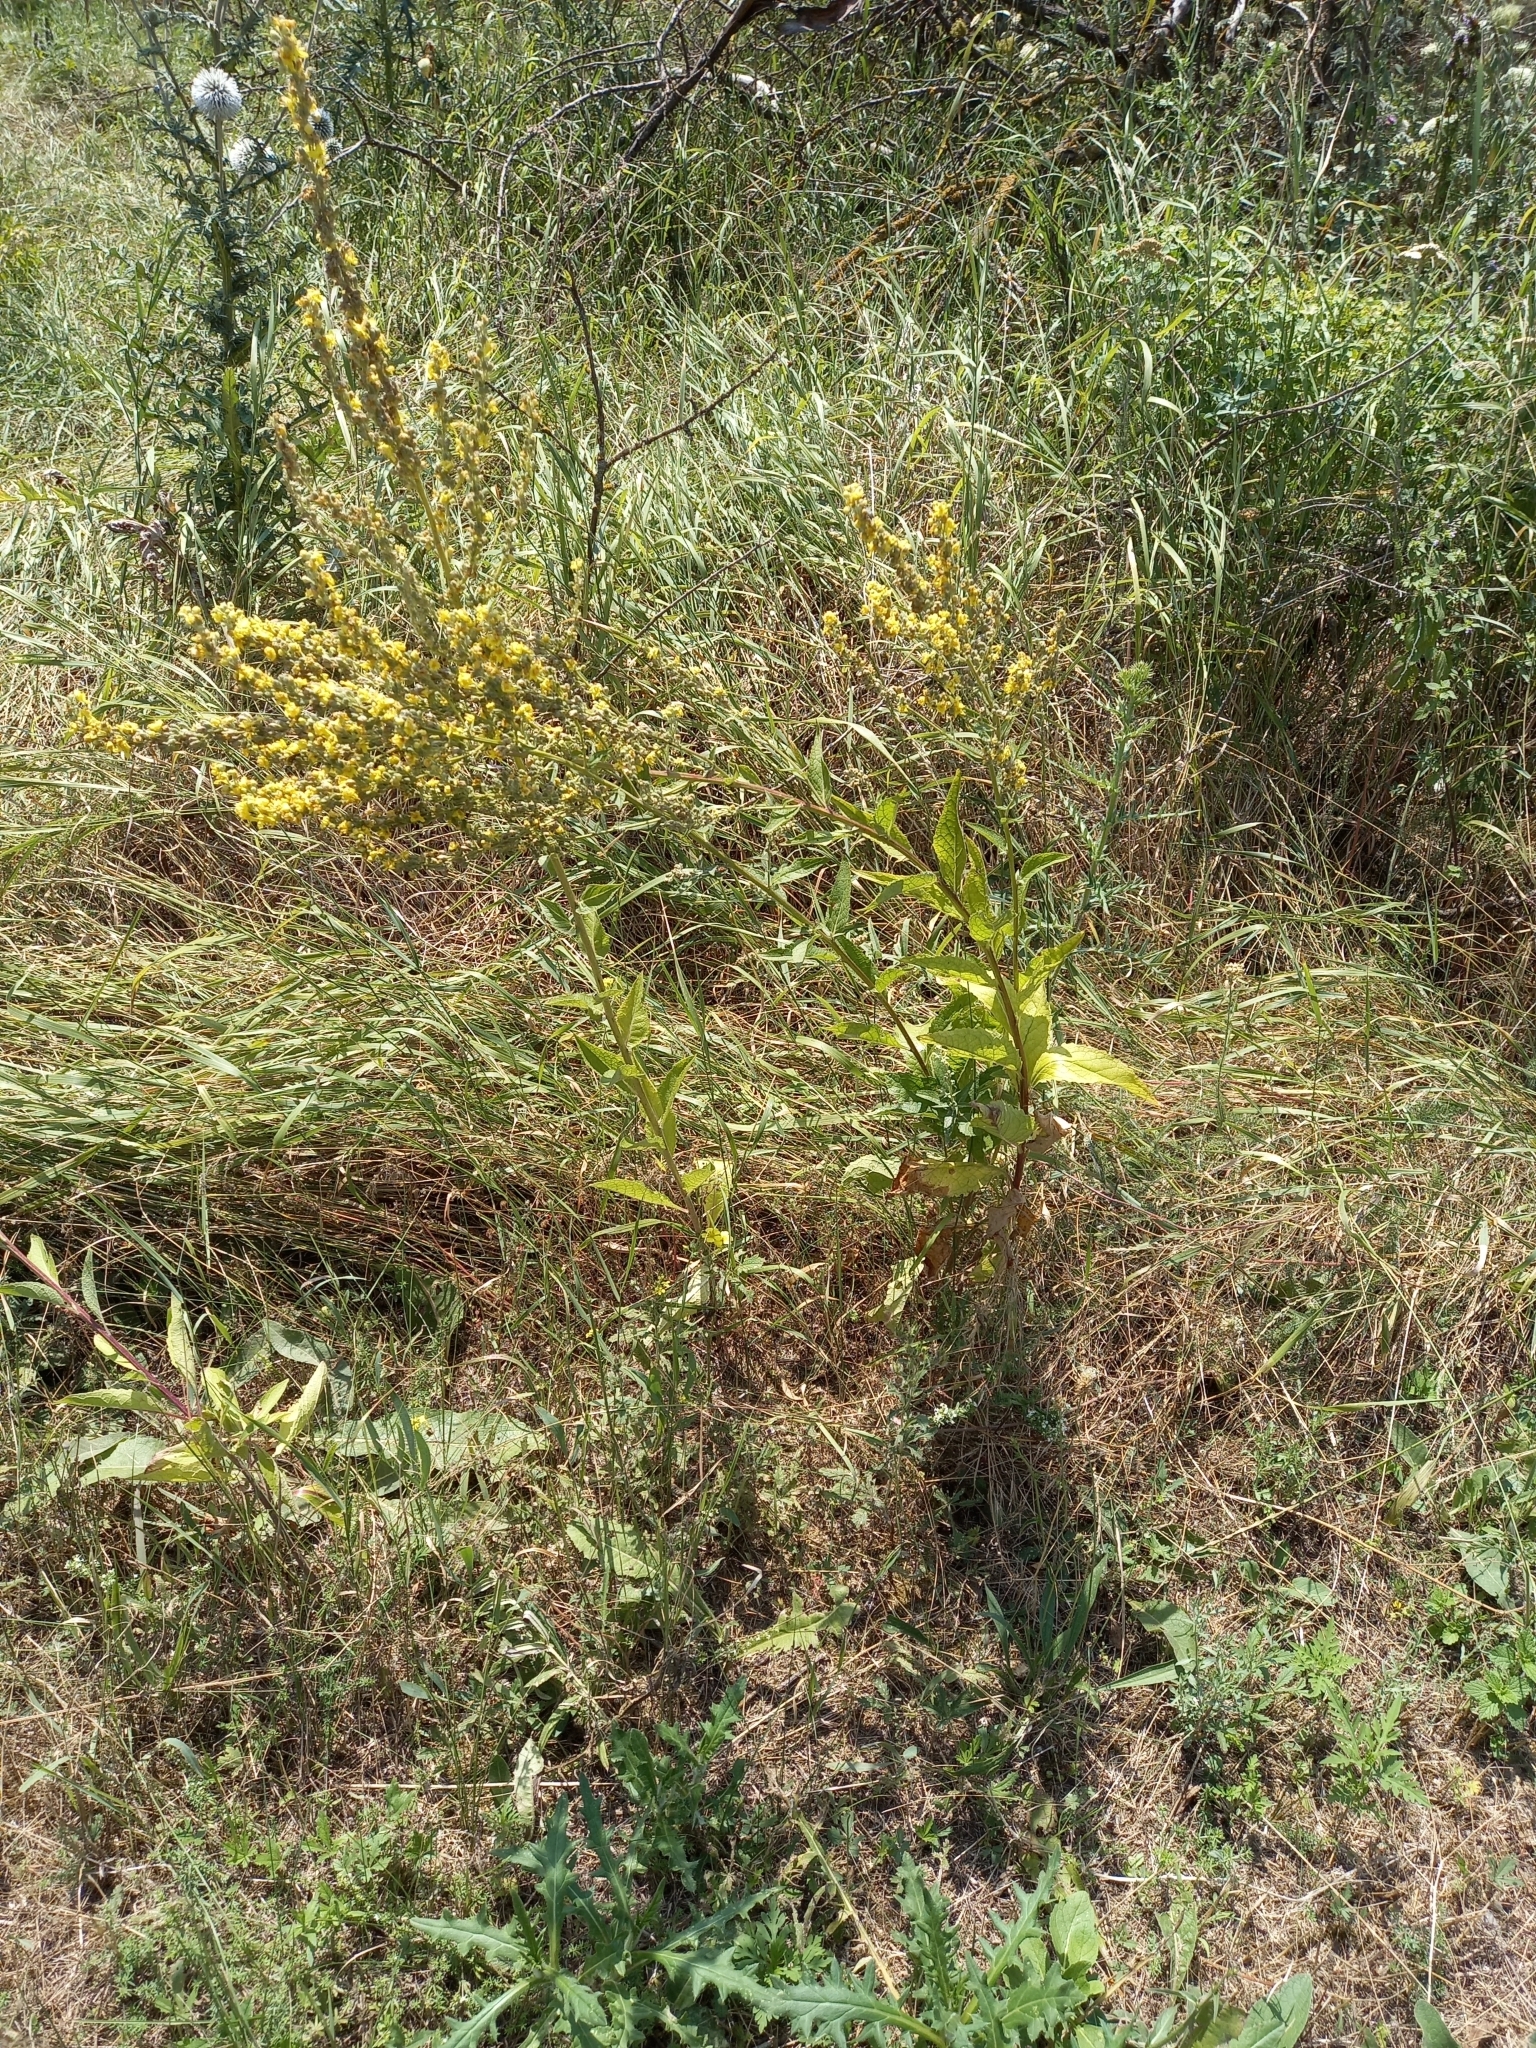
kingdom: Plantae
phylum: Tracheophyta
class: Magnoliopsida
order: Lamiales
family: Scrophulariaceae
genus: Verbascum
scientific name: Verbascum lychnitis
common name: White mullein
